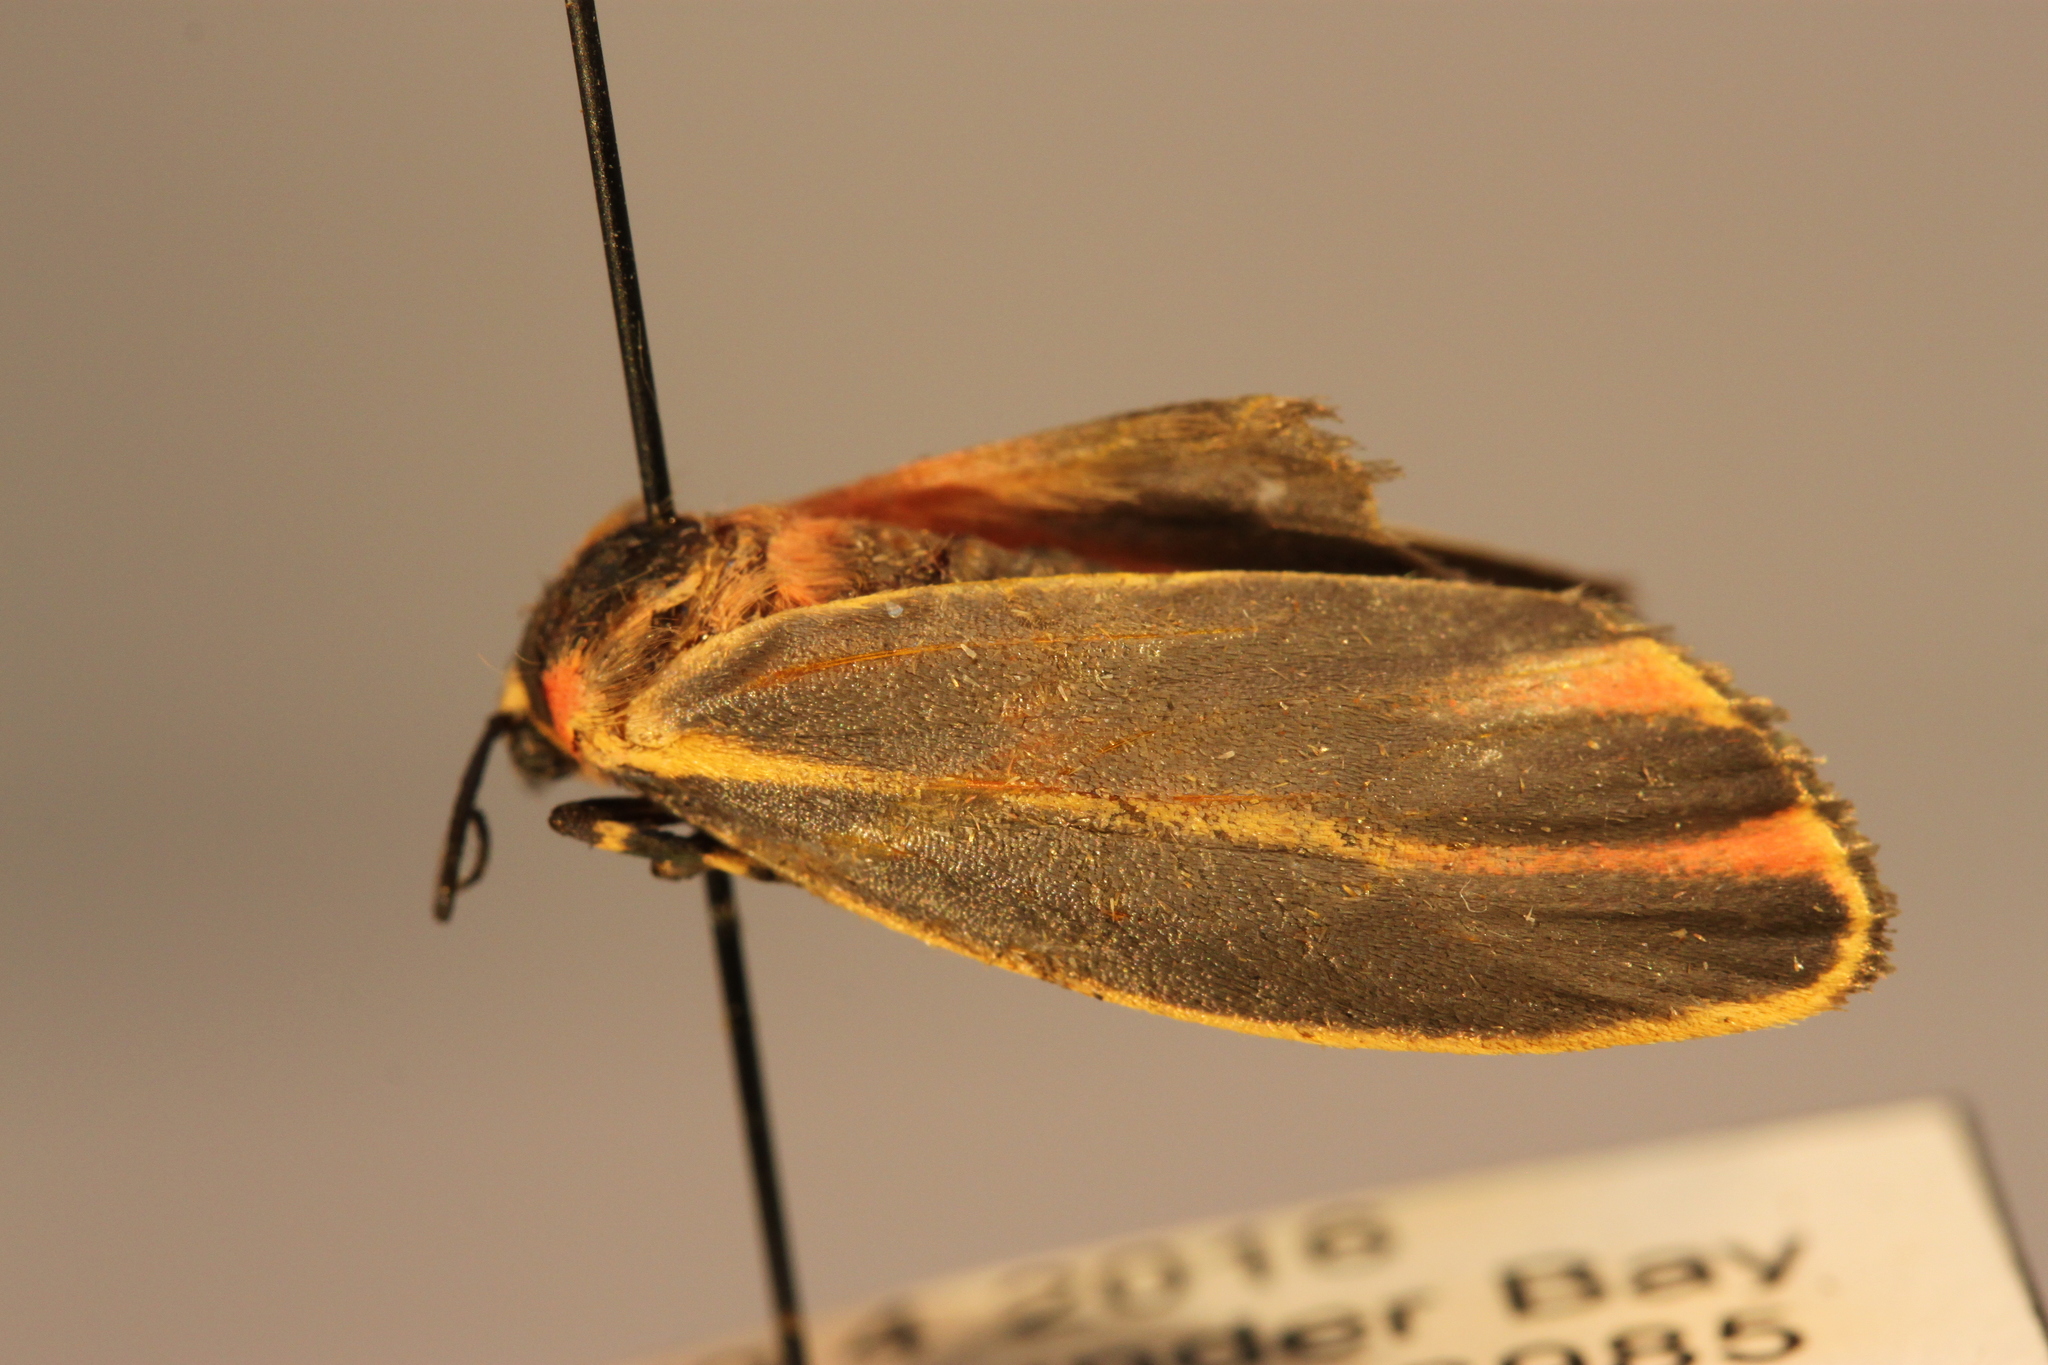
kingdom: Animalia
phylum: Arthropoda
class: Insecta
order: Lepidoptera
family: Erebidae
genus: Hypoprepia
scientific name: Hypoprepia fucosa
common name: Painted lichen moth
